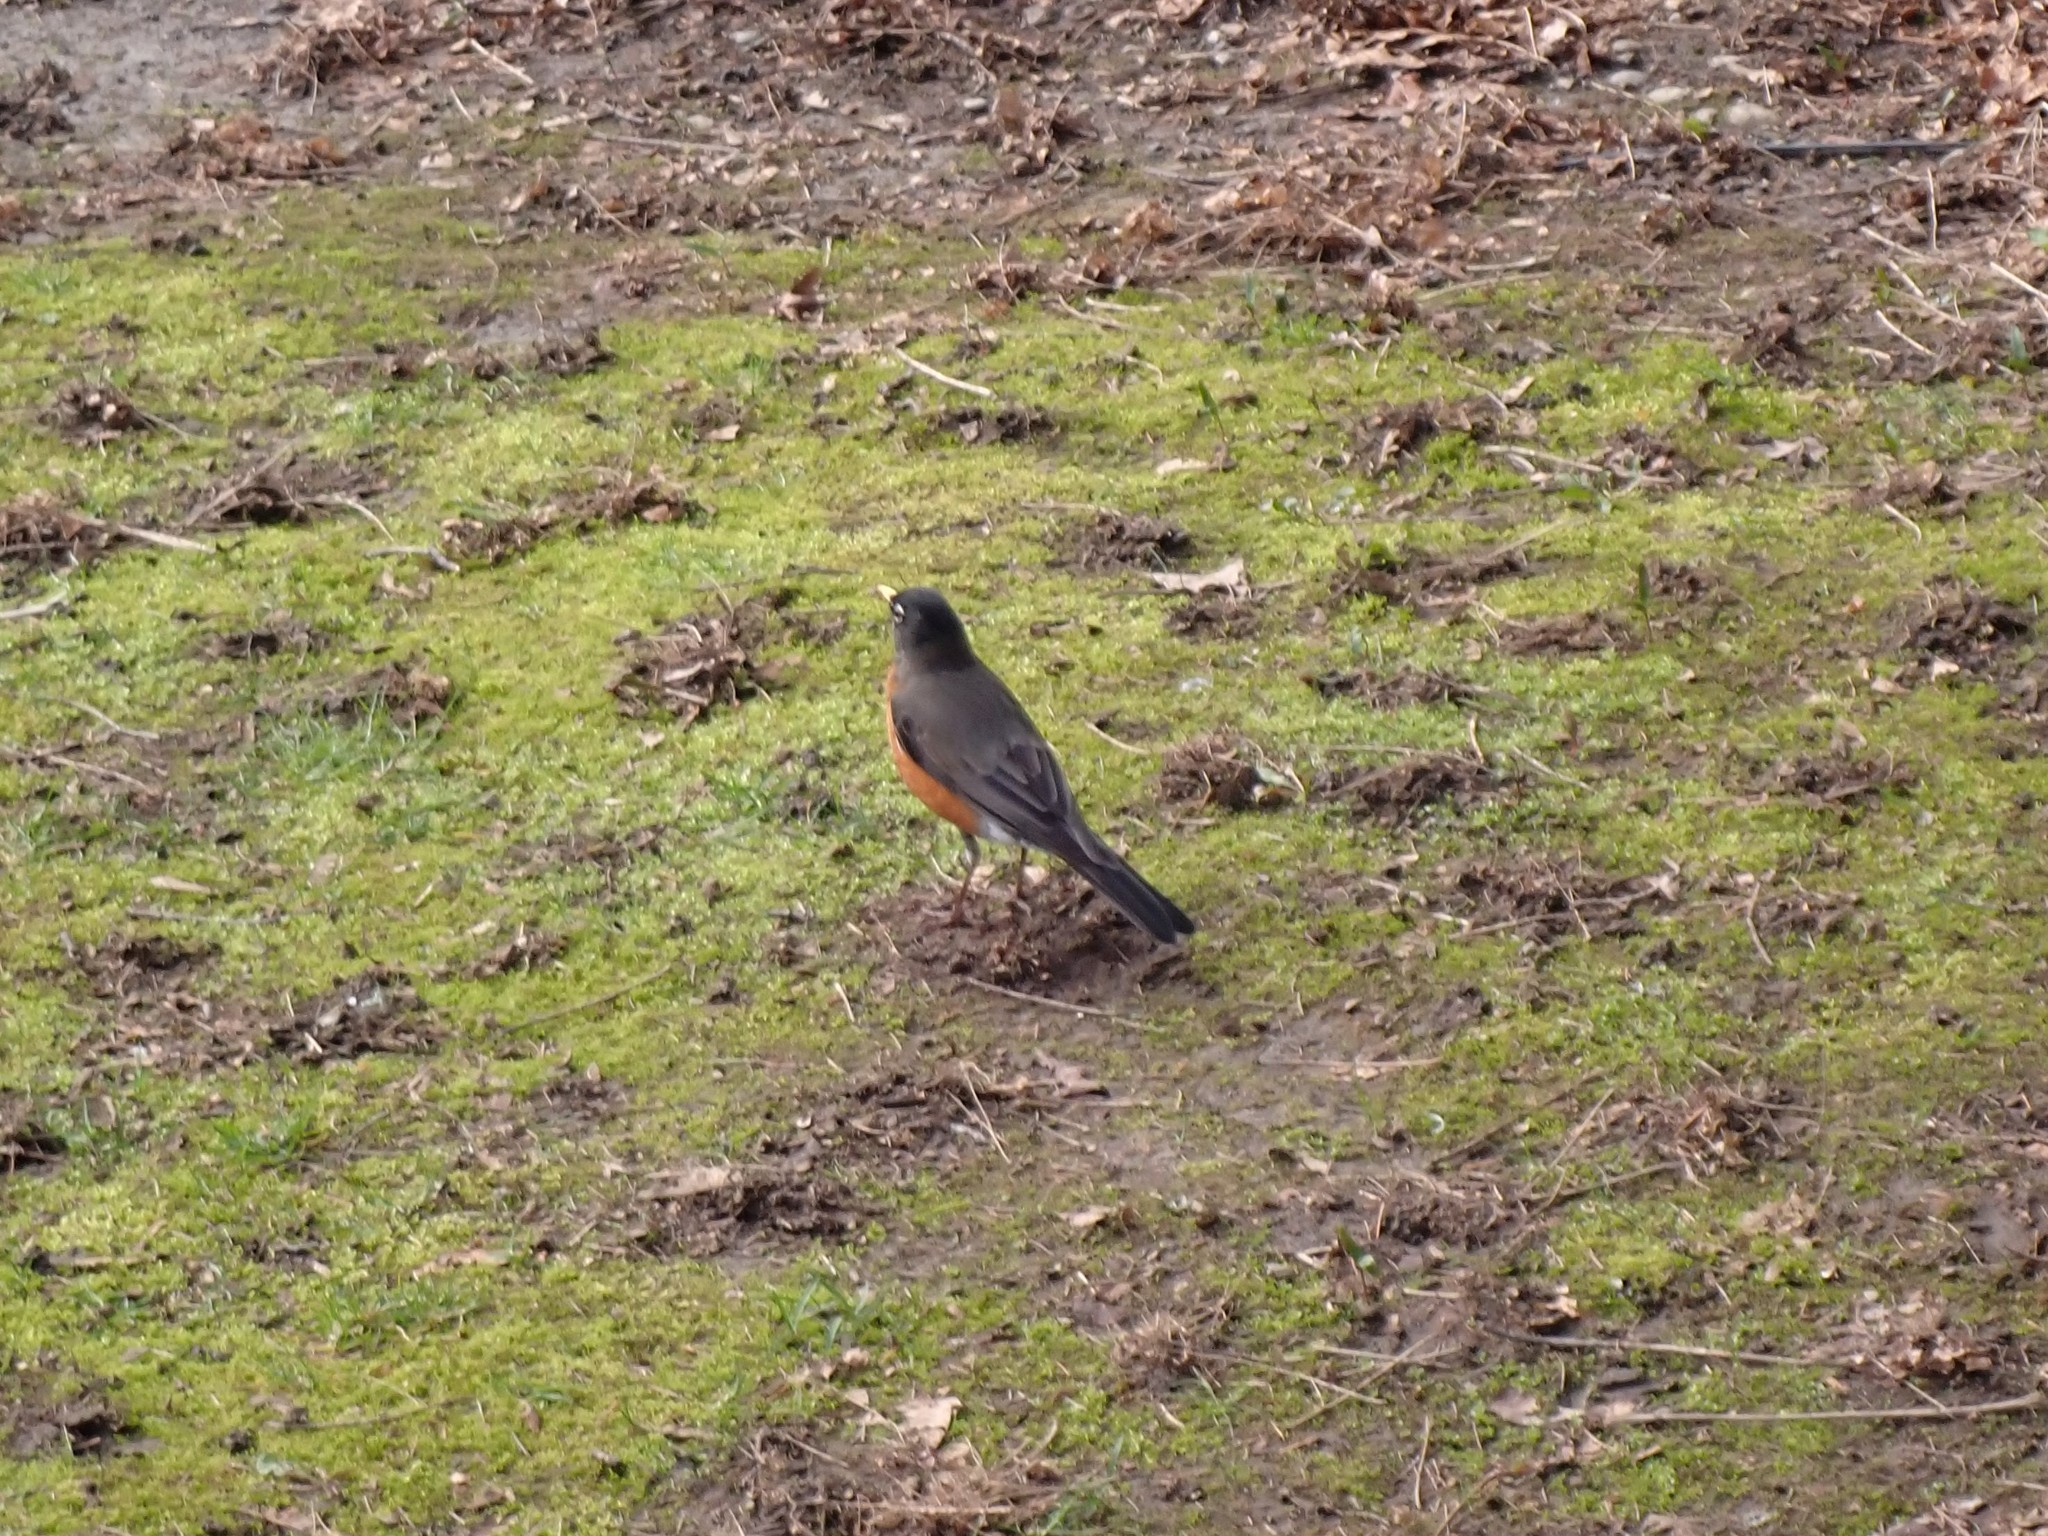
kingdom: Animalia
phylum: Chordata
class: Aves
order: Passeriformes
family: Turdidae
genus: Turdus
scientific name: Turdus migratorius
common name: American robin
